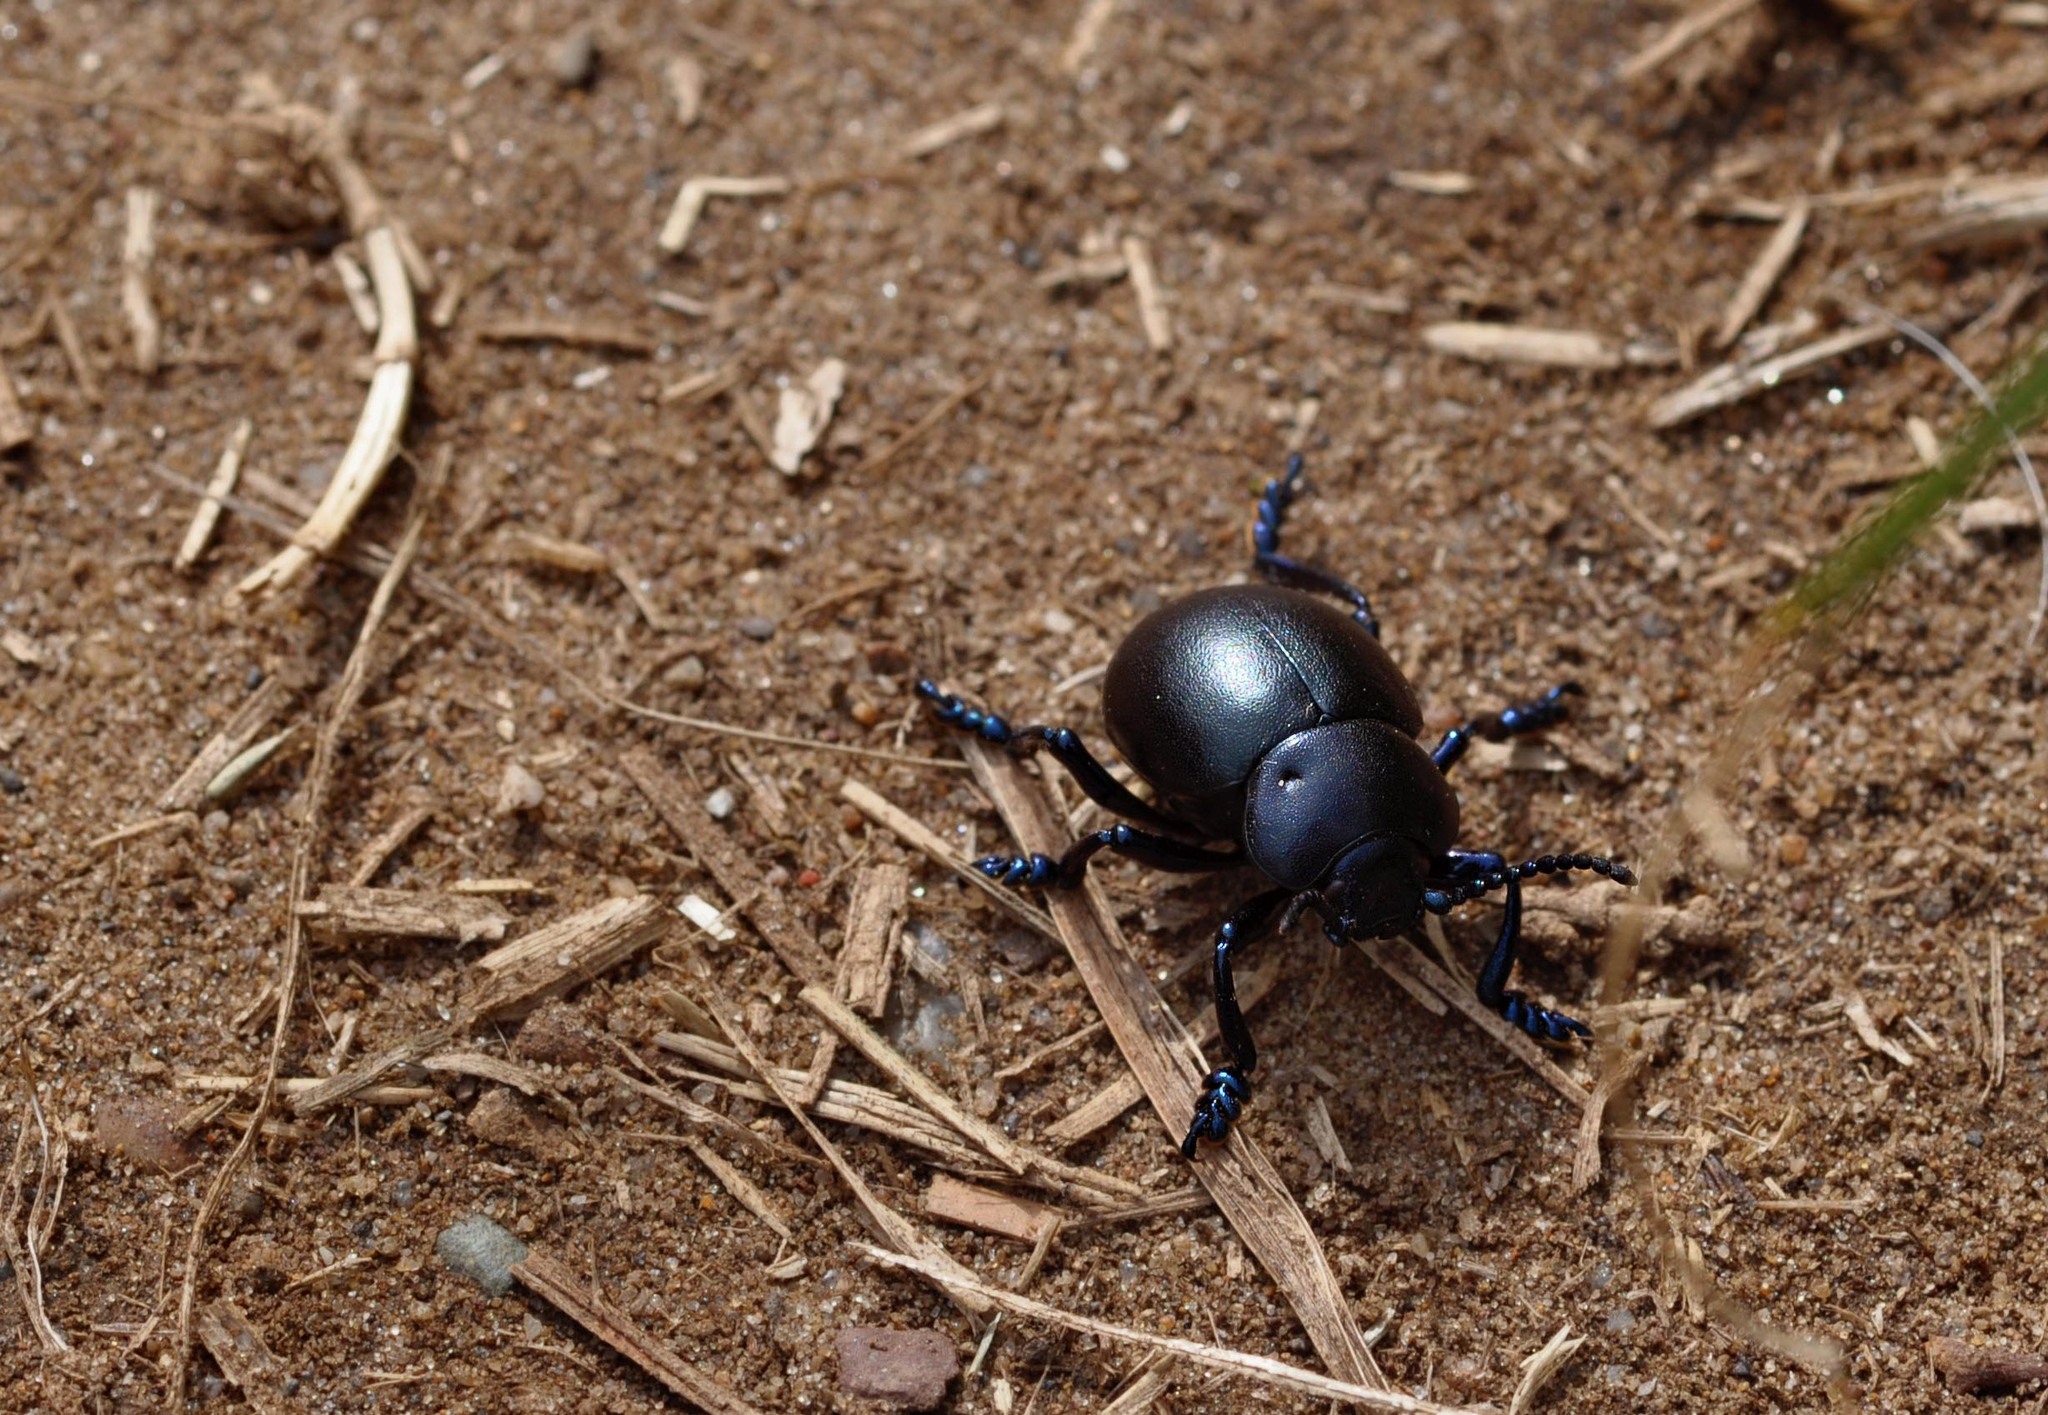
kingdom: Animalia
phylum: Arthropoda
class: Insecta
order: Coleoptera
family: Chrysomelidae
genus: Timarcha
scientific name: Timarcha tenebricosa
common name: Bloody-nosed beetle
